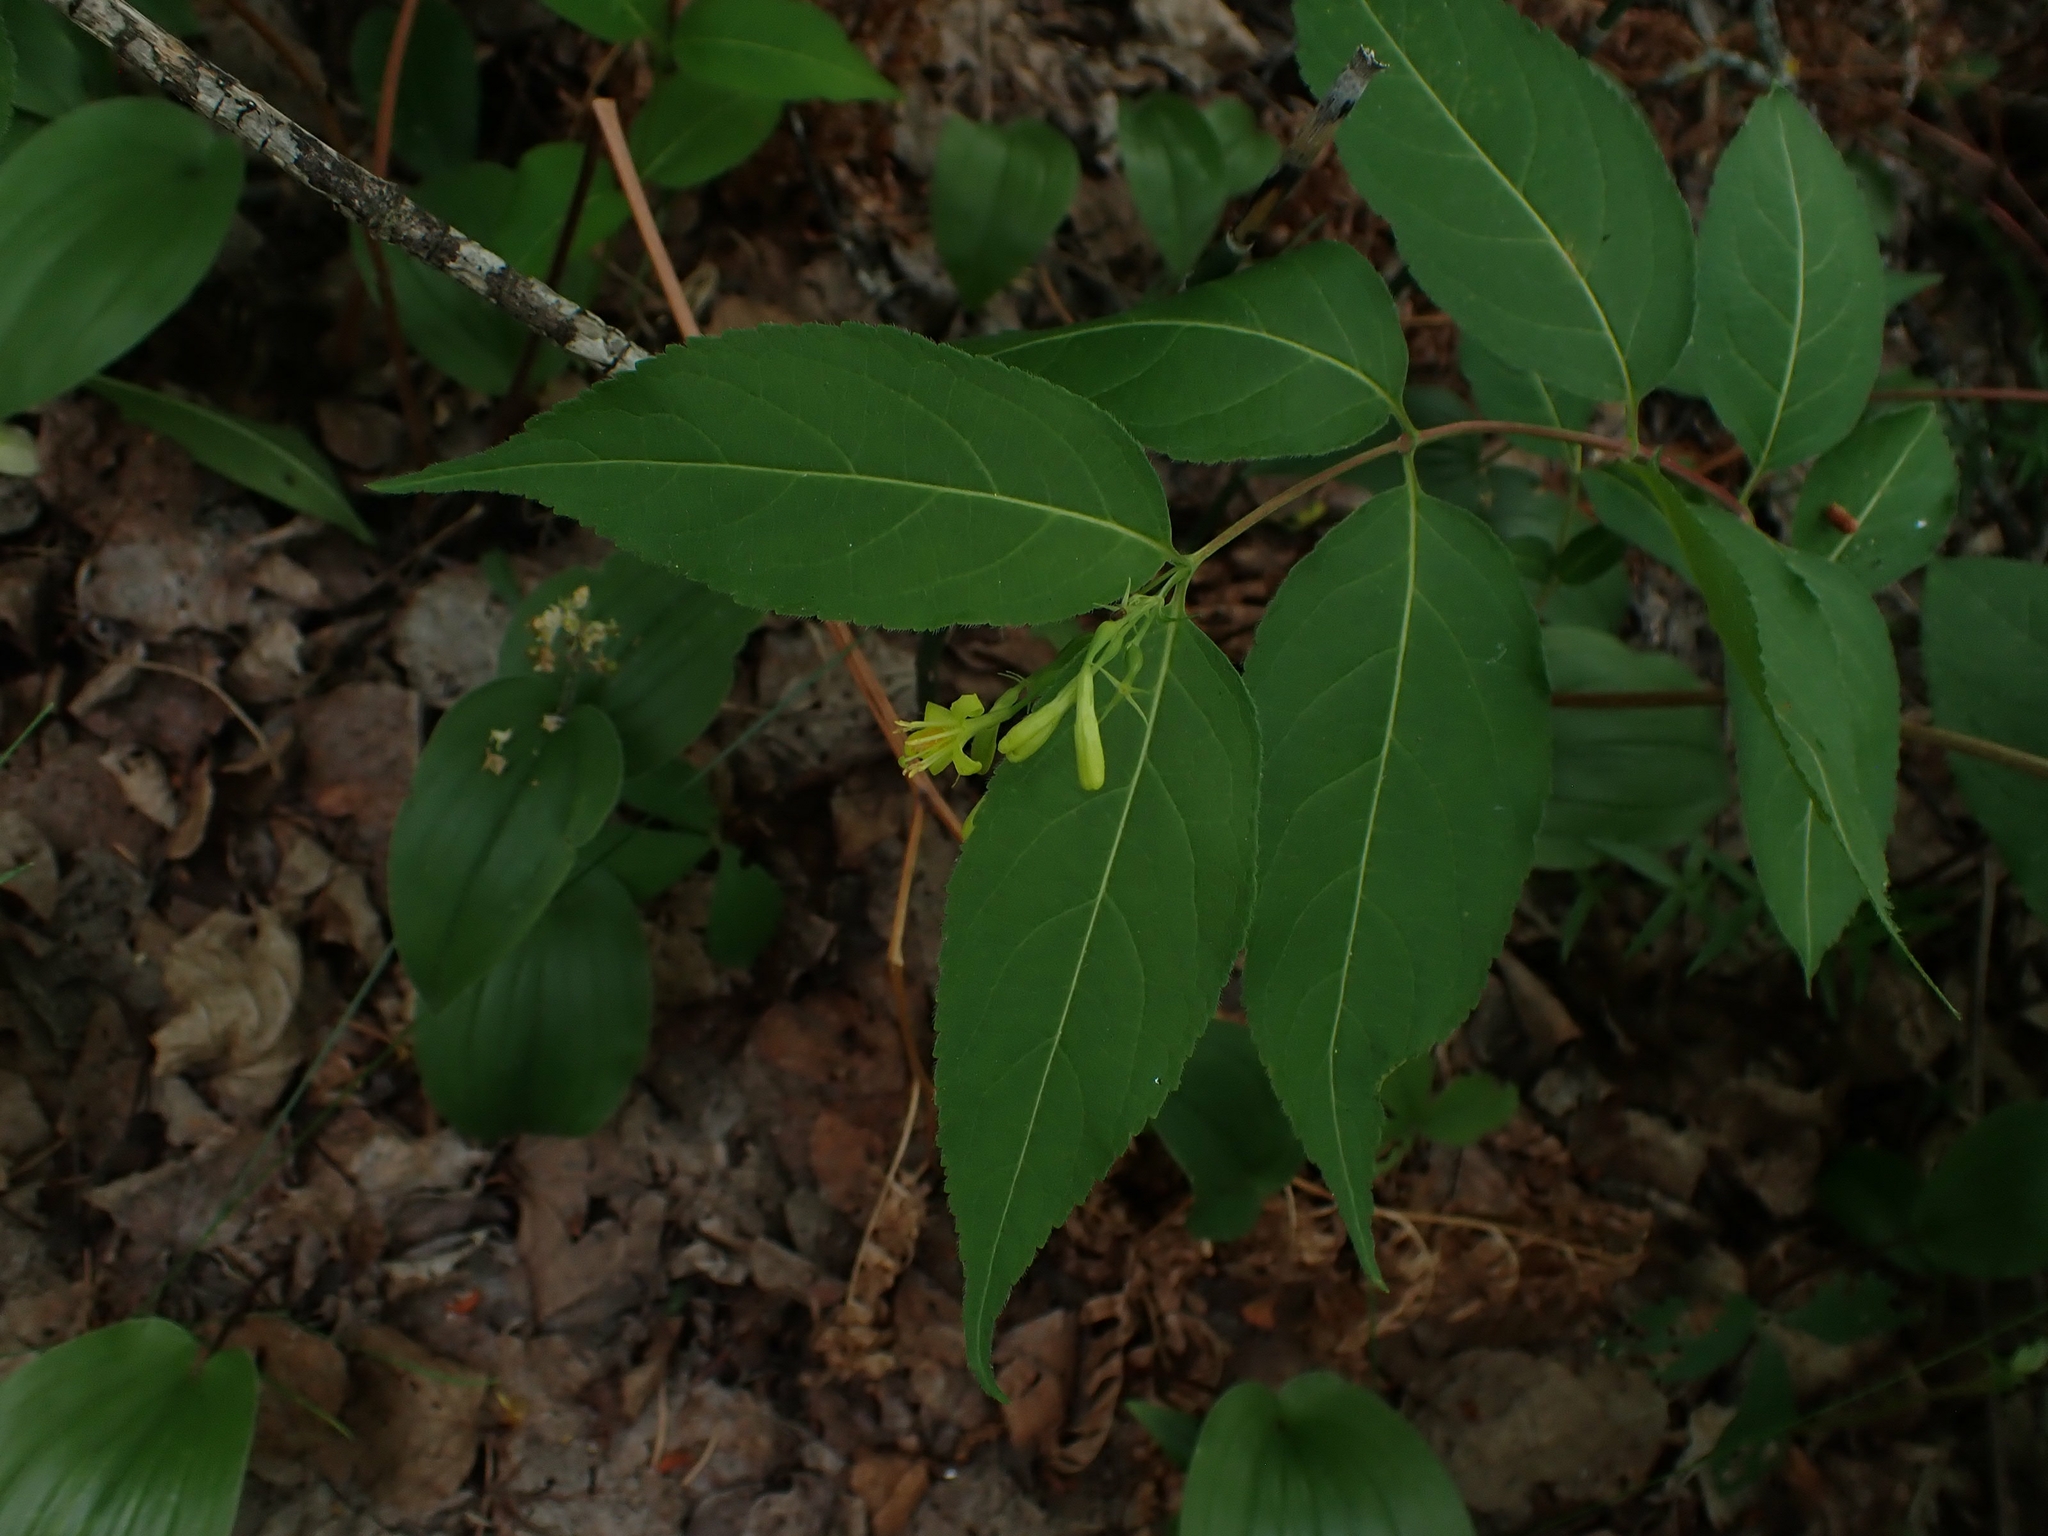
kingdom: Plantae
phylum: Tracheophyta
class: Magnoliopsida
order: Dipsacales
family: Caprifoliaceae
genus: Diervilla
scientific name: Diervilla lonicera
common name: Bush-honeysuckle
